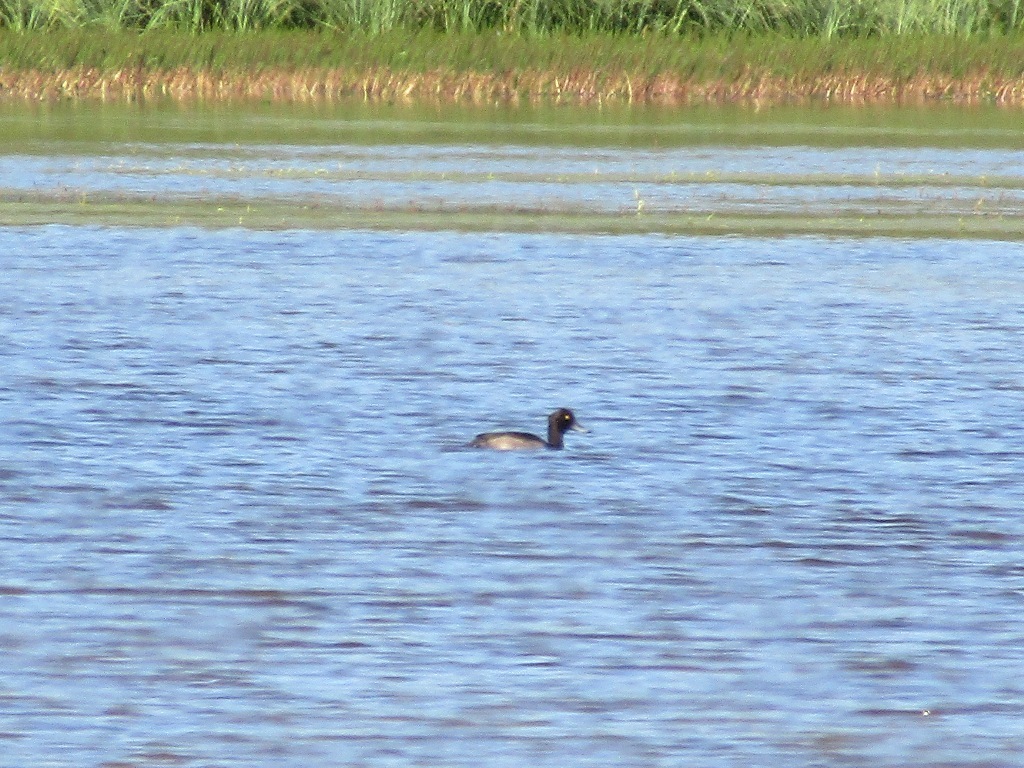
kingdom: Animalia
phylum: Chordata
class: Aves
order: Anseriformes
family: Anatidae
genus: Aythya
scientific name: Aythya fuligula
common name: Tufted duck
